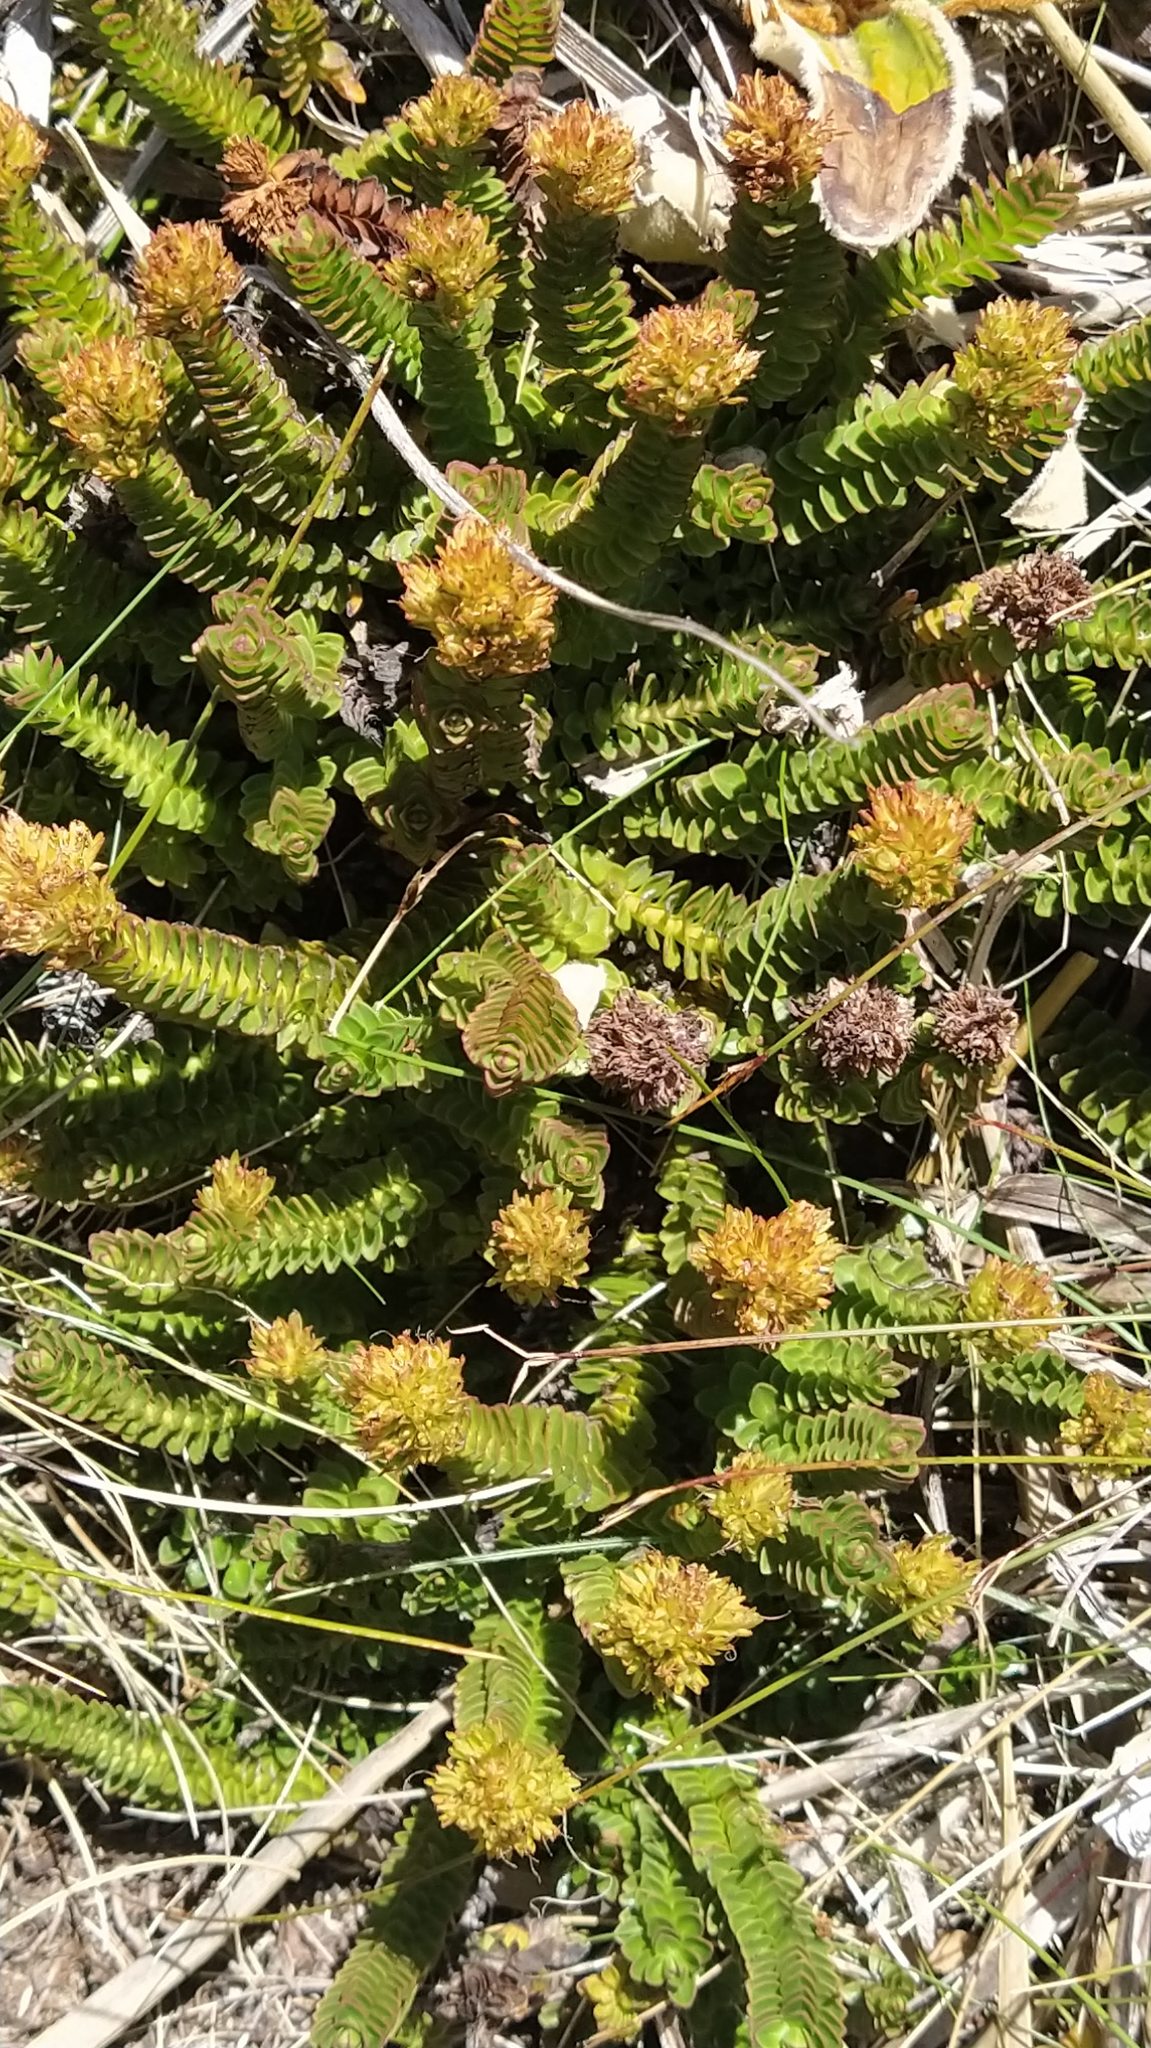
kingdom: Plantae
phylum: Tracheophyta
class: Magnoliopsida
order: Lamiales
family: Plantaginaceae
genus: Veronica
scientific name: Veronica epacridea
